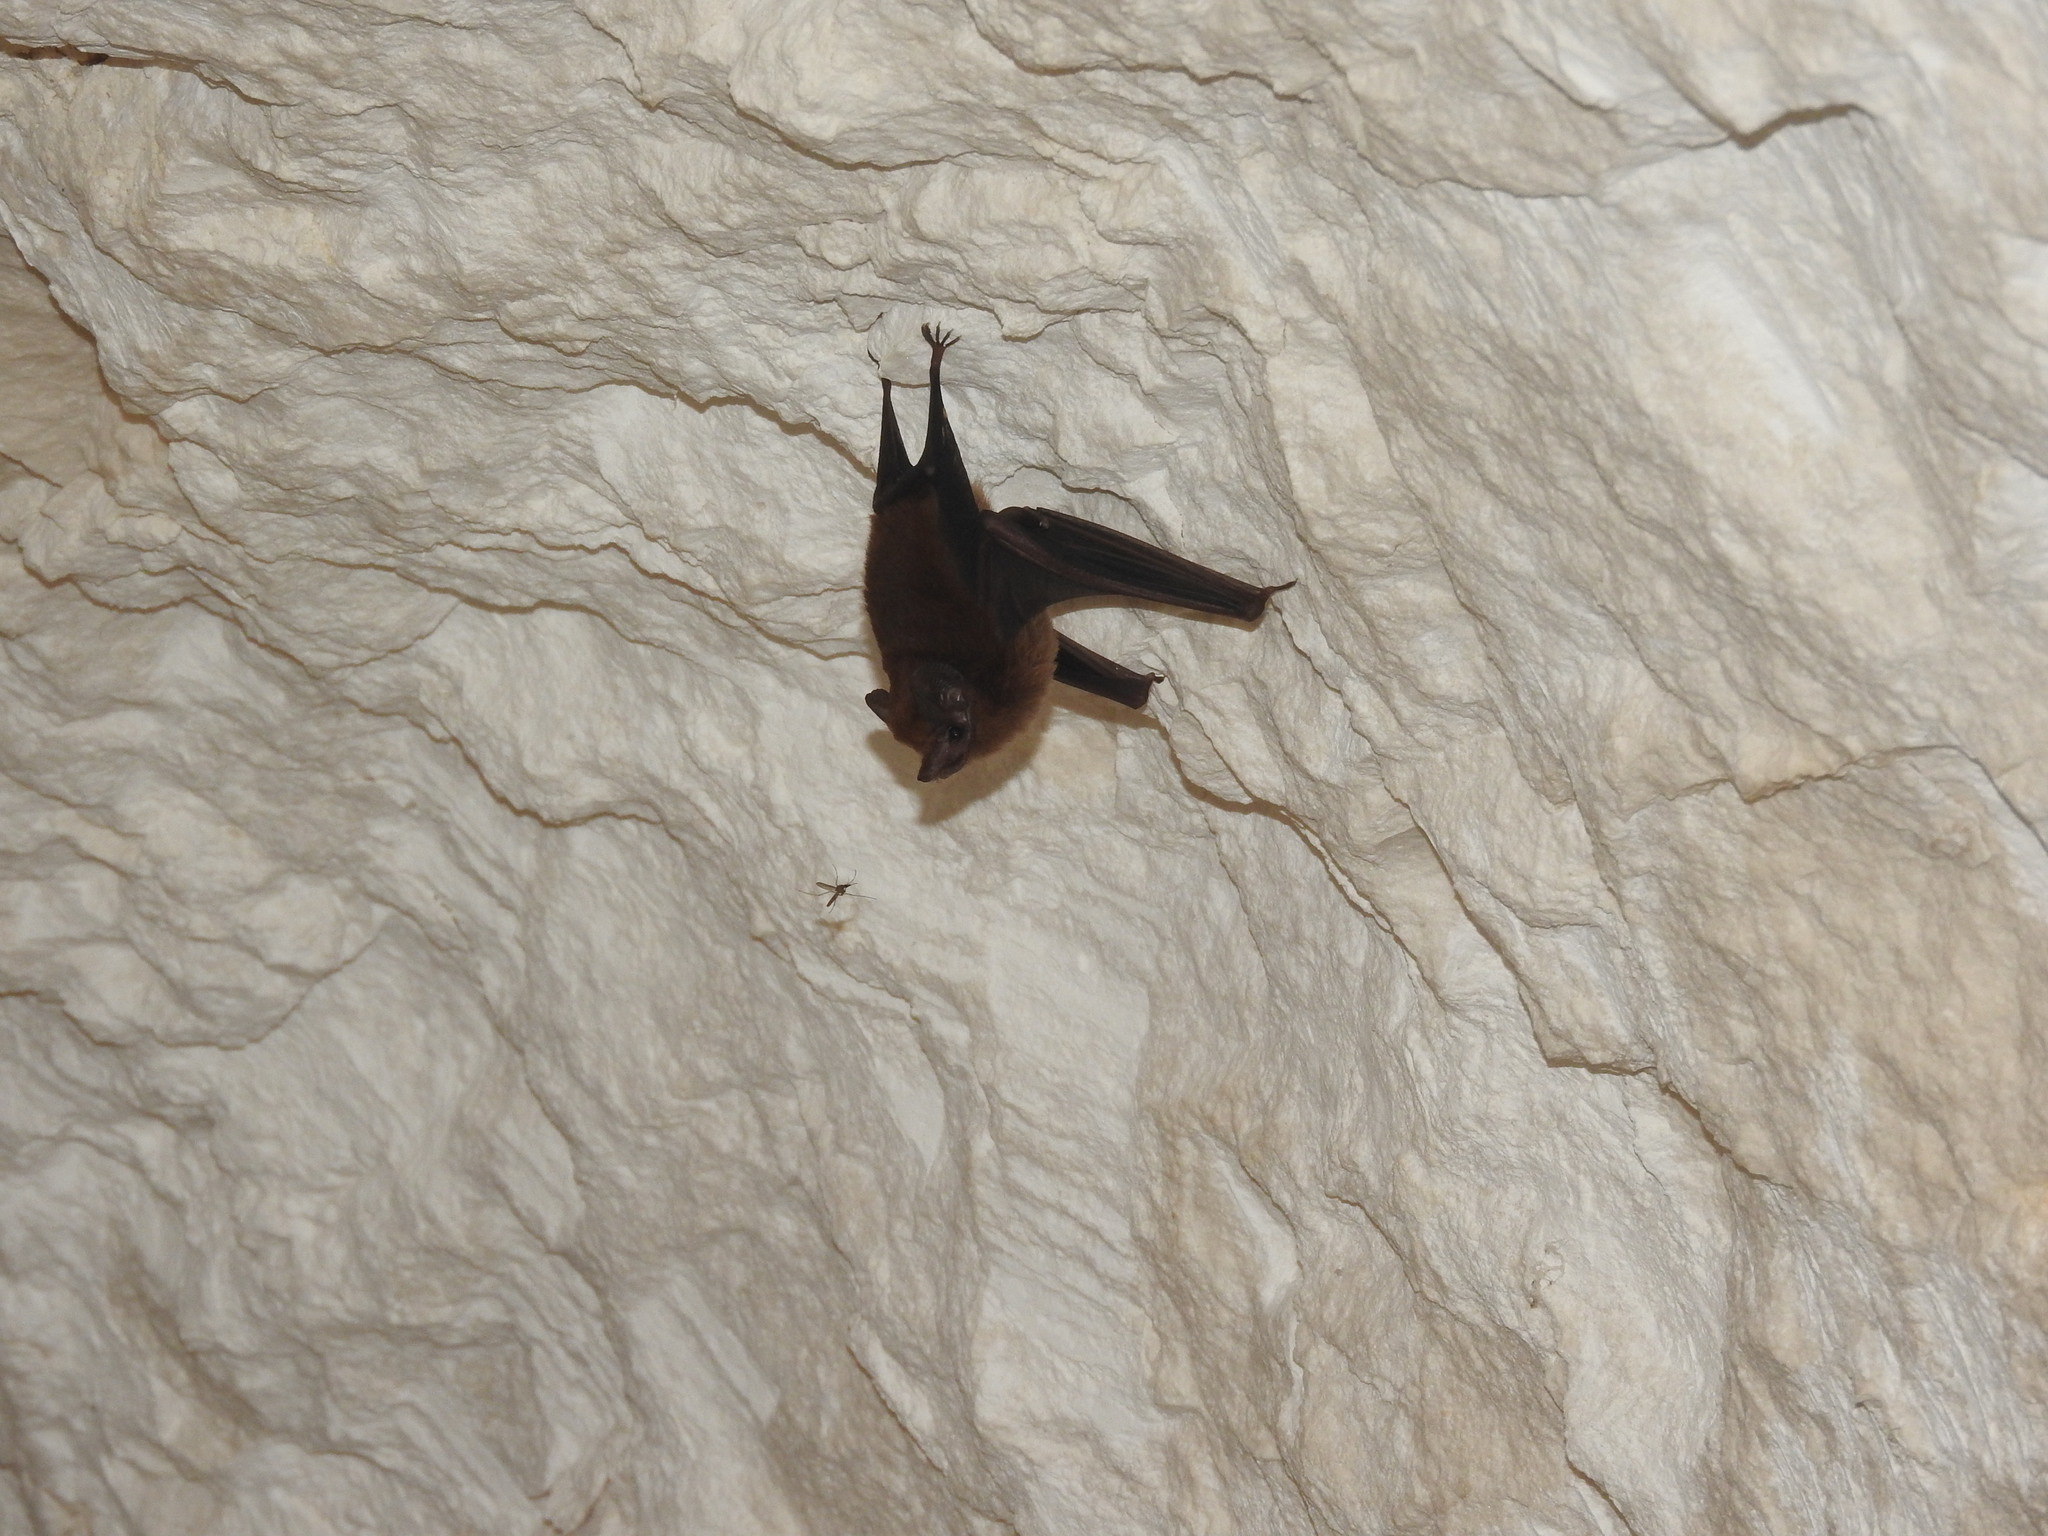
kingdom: Animalia
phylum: Chordata
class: Mammalia
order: Chiroptera
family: Emballonuridae
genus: Peropteryx
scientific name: Peropteryx macrotis
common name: Lesser dog-like bat
